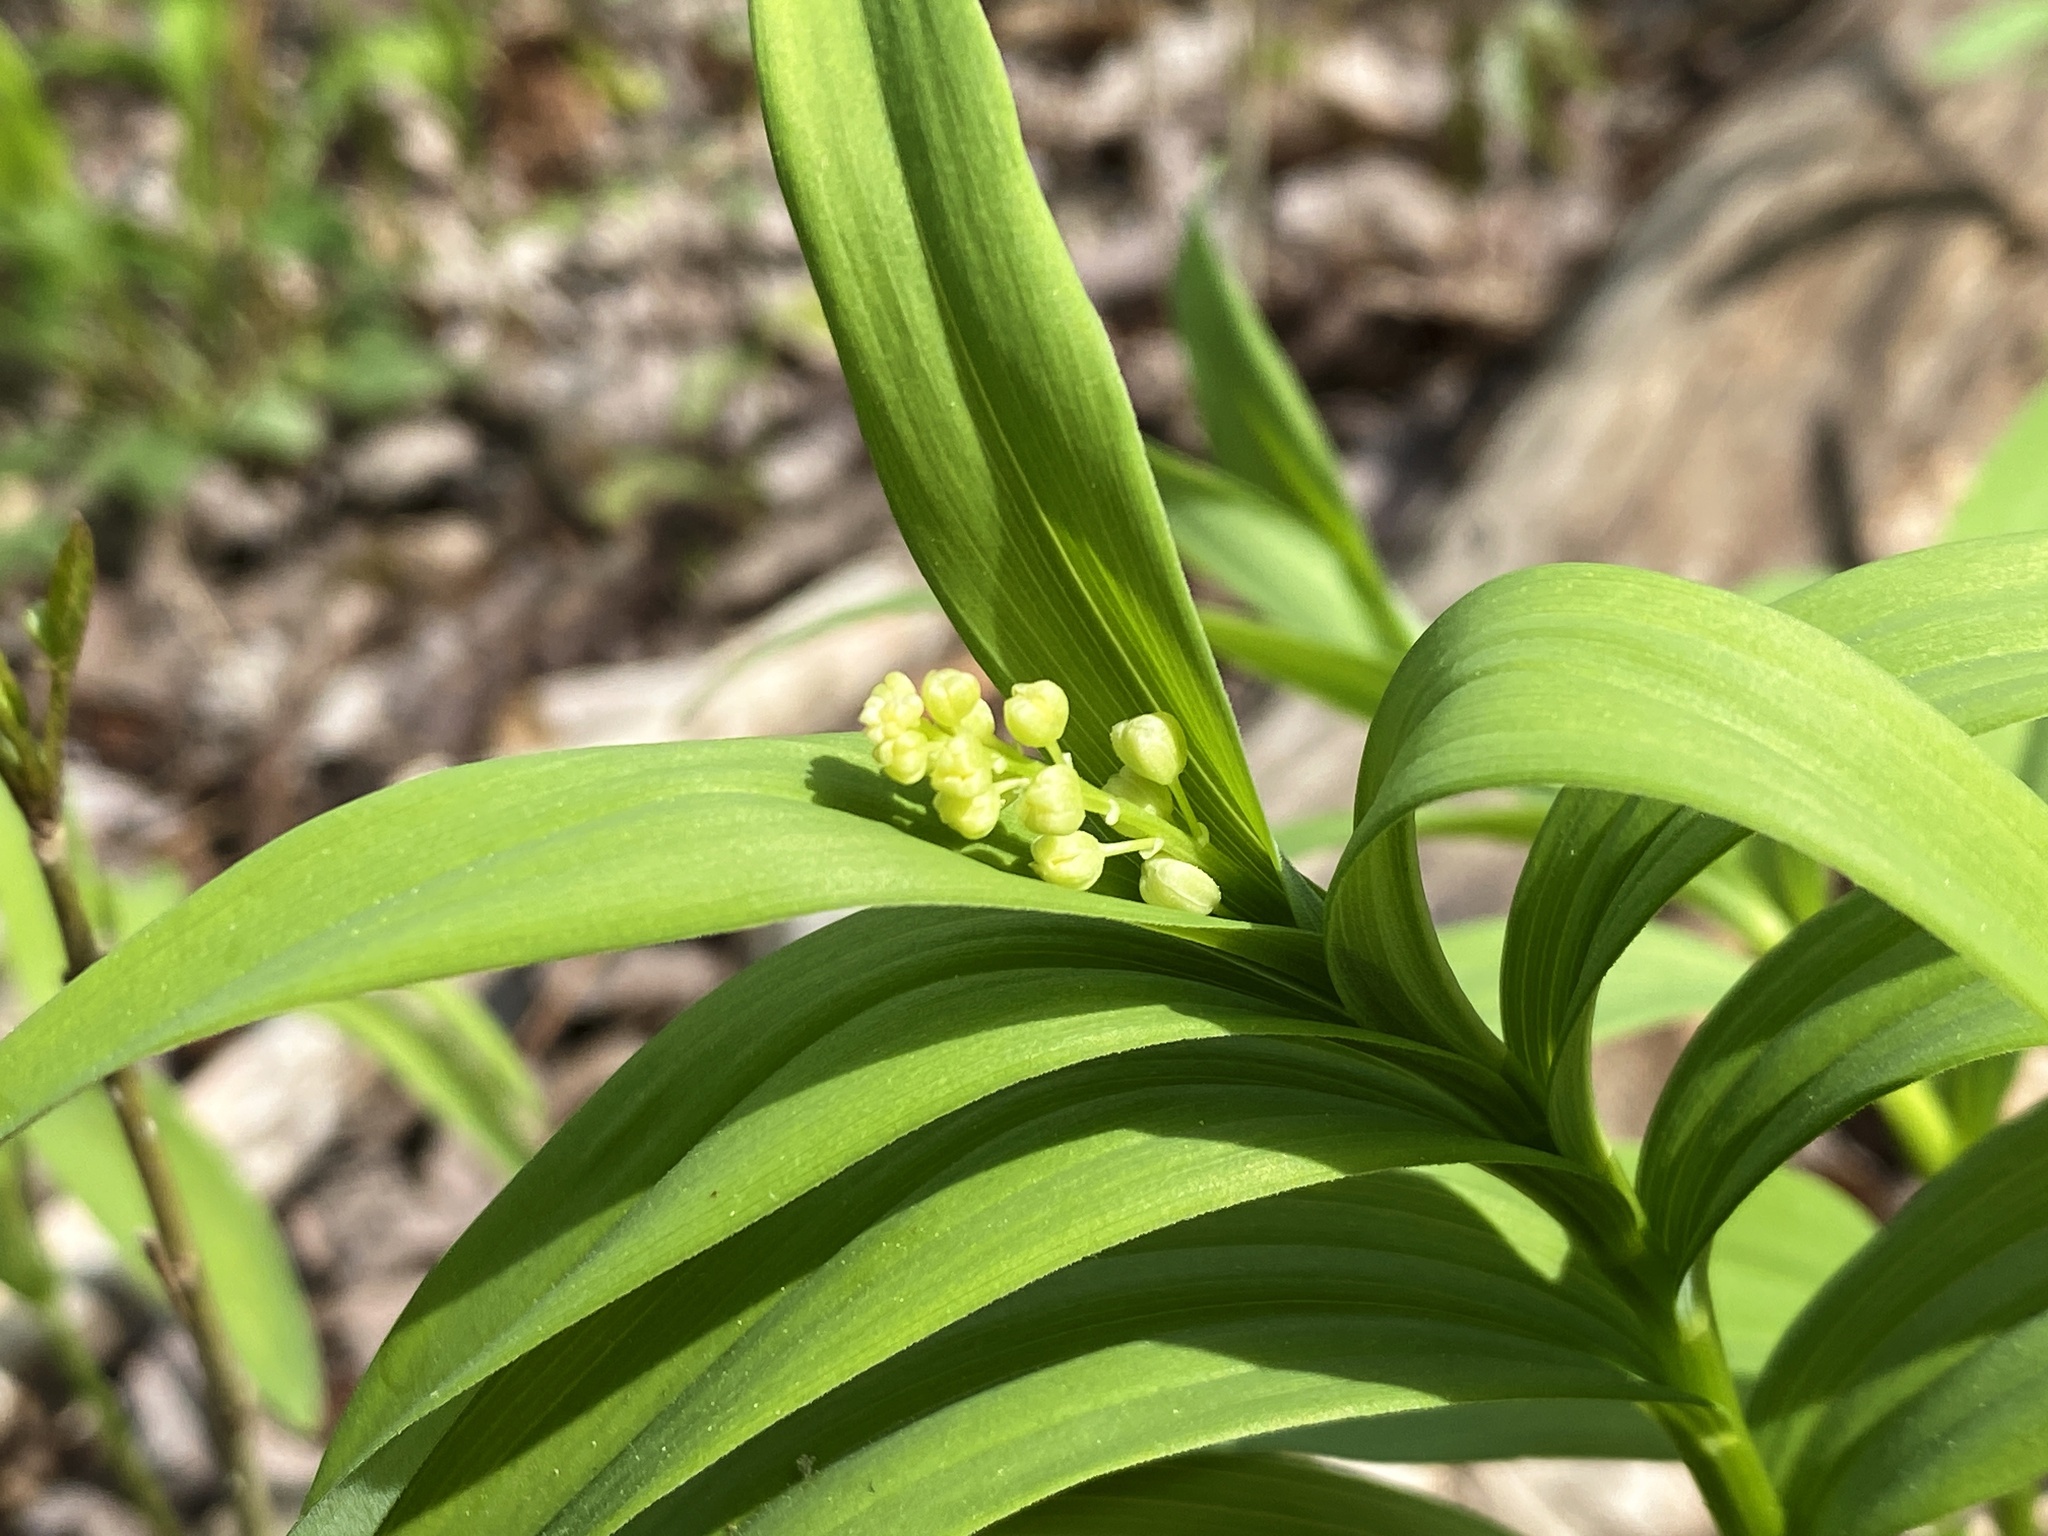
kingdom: Plantae
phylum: Tracheophyta
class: Liliopsida
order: Asparagales
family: Asparagaceae
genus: Maianthemum
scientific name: Maianthemum stellatum
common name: Little false solomon's seal
